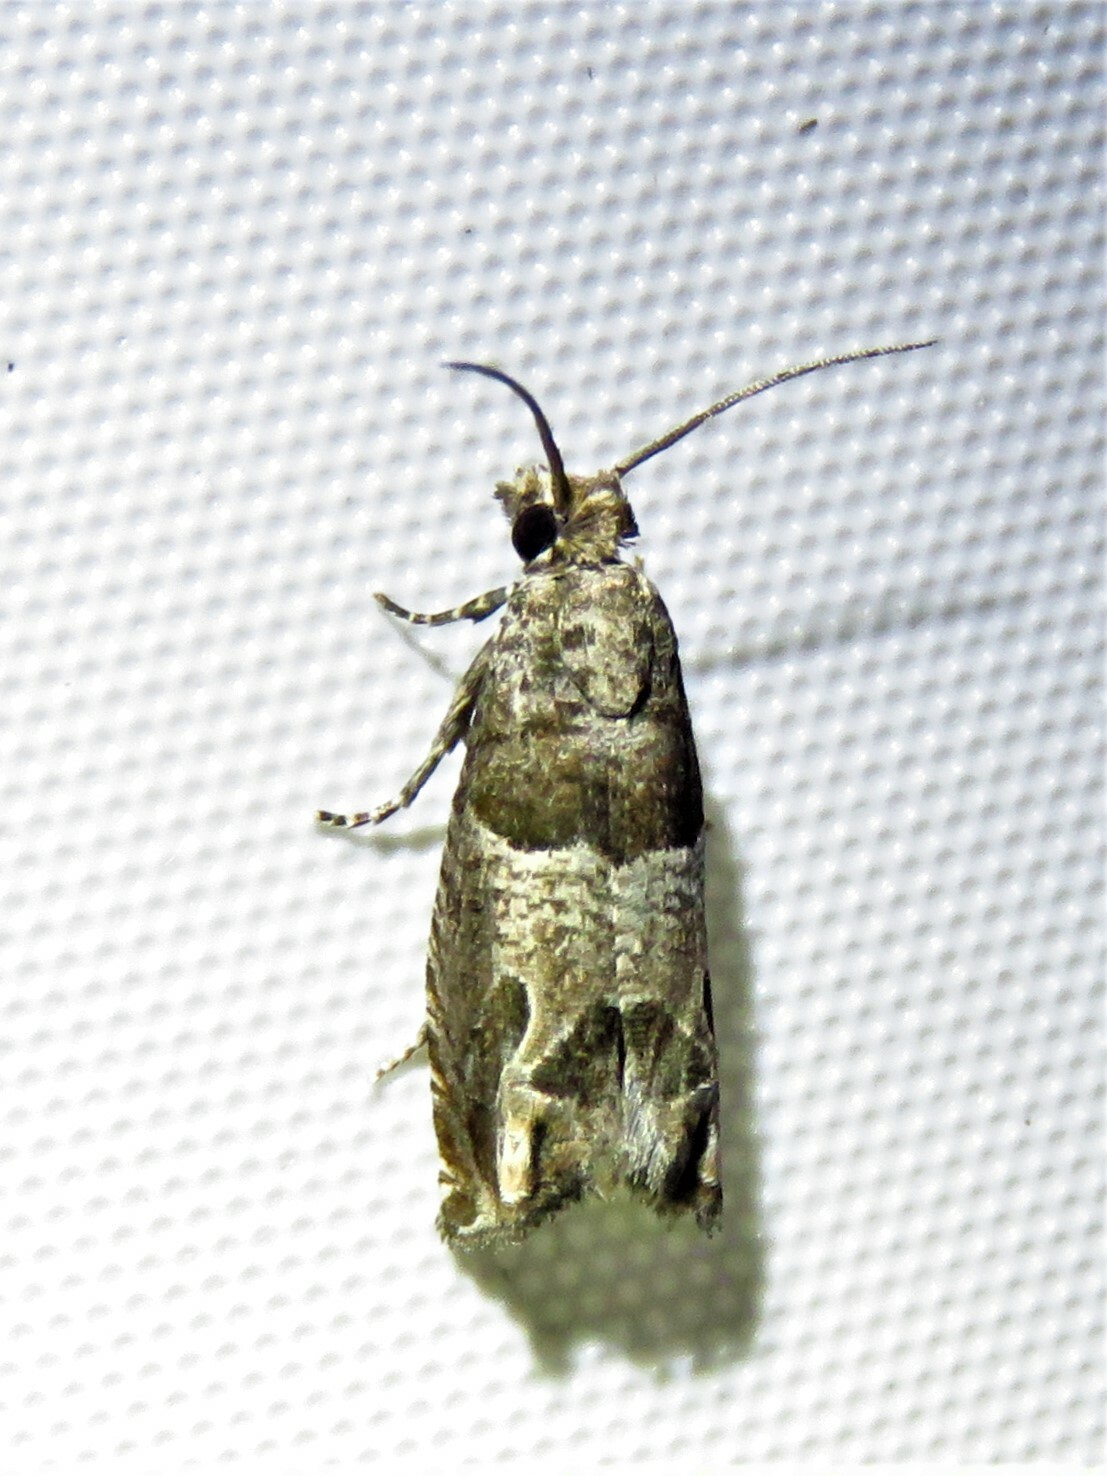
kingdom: Animalia
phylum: Arthropoda
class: Insecta
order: Lepidoptera
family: Tortricidae
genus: Sonia
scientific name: Sonia constrictana
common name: Constricted sonia moth
